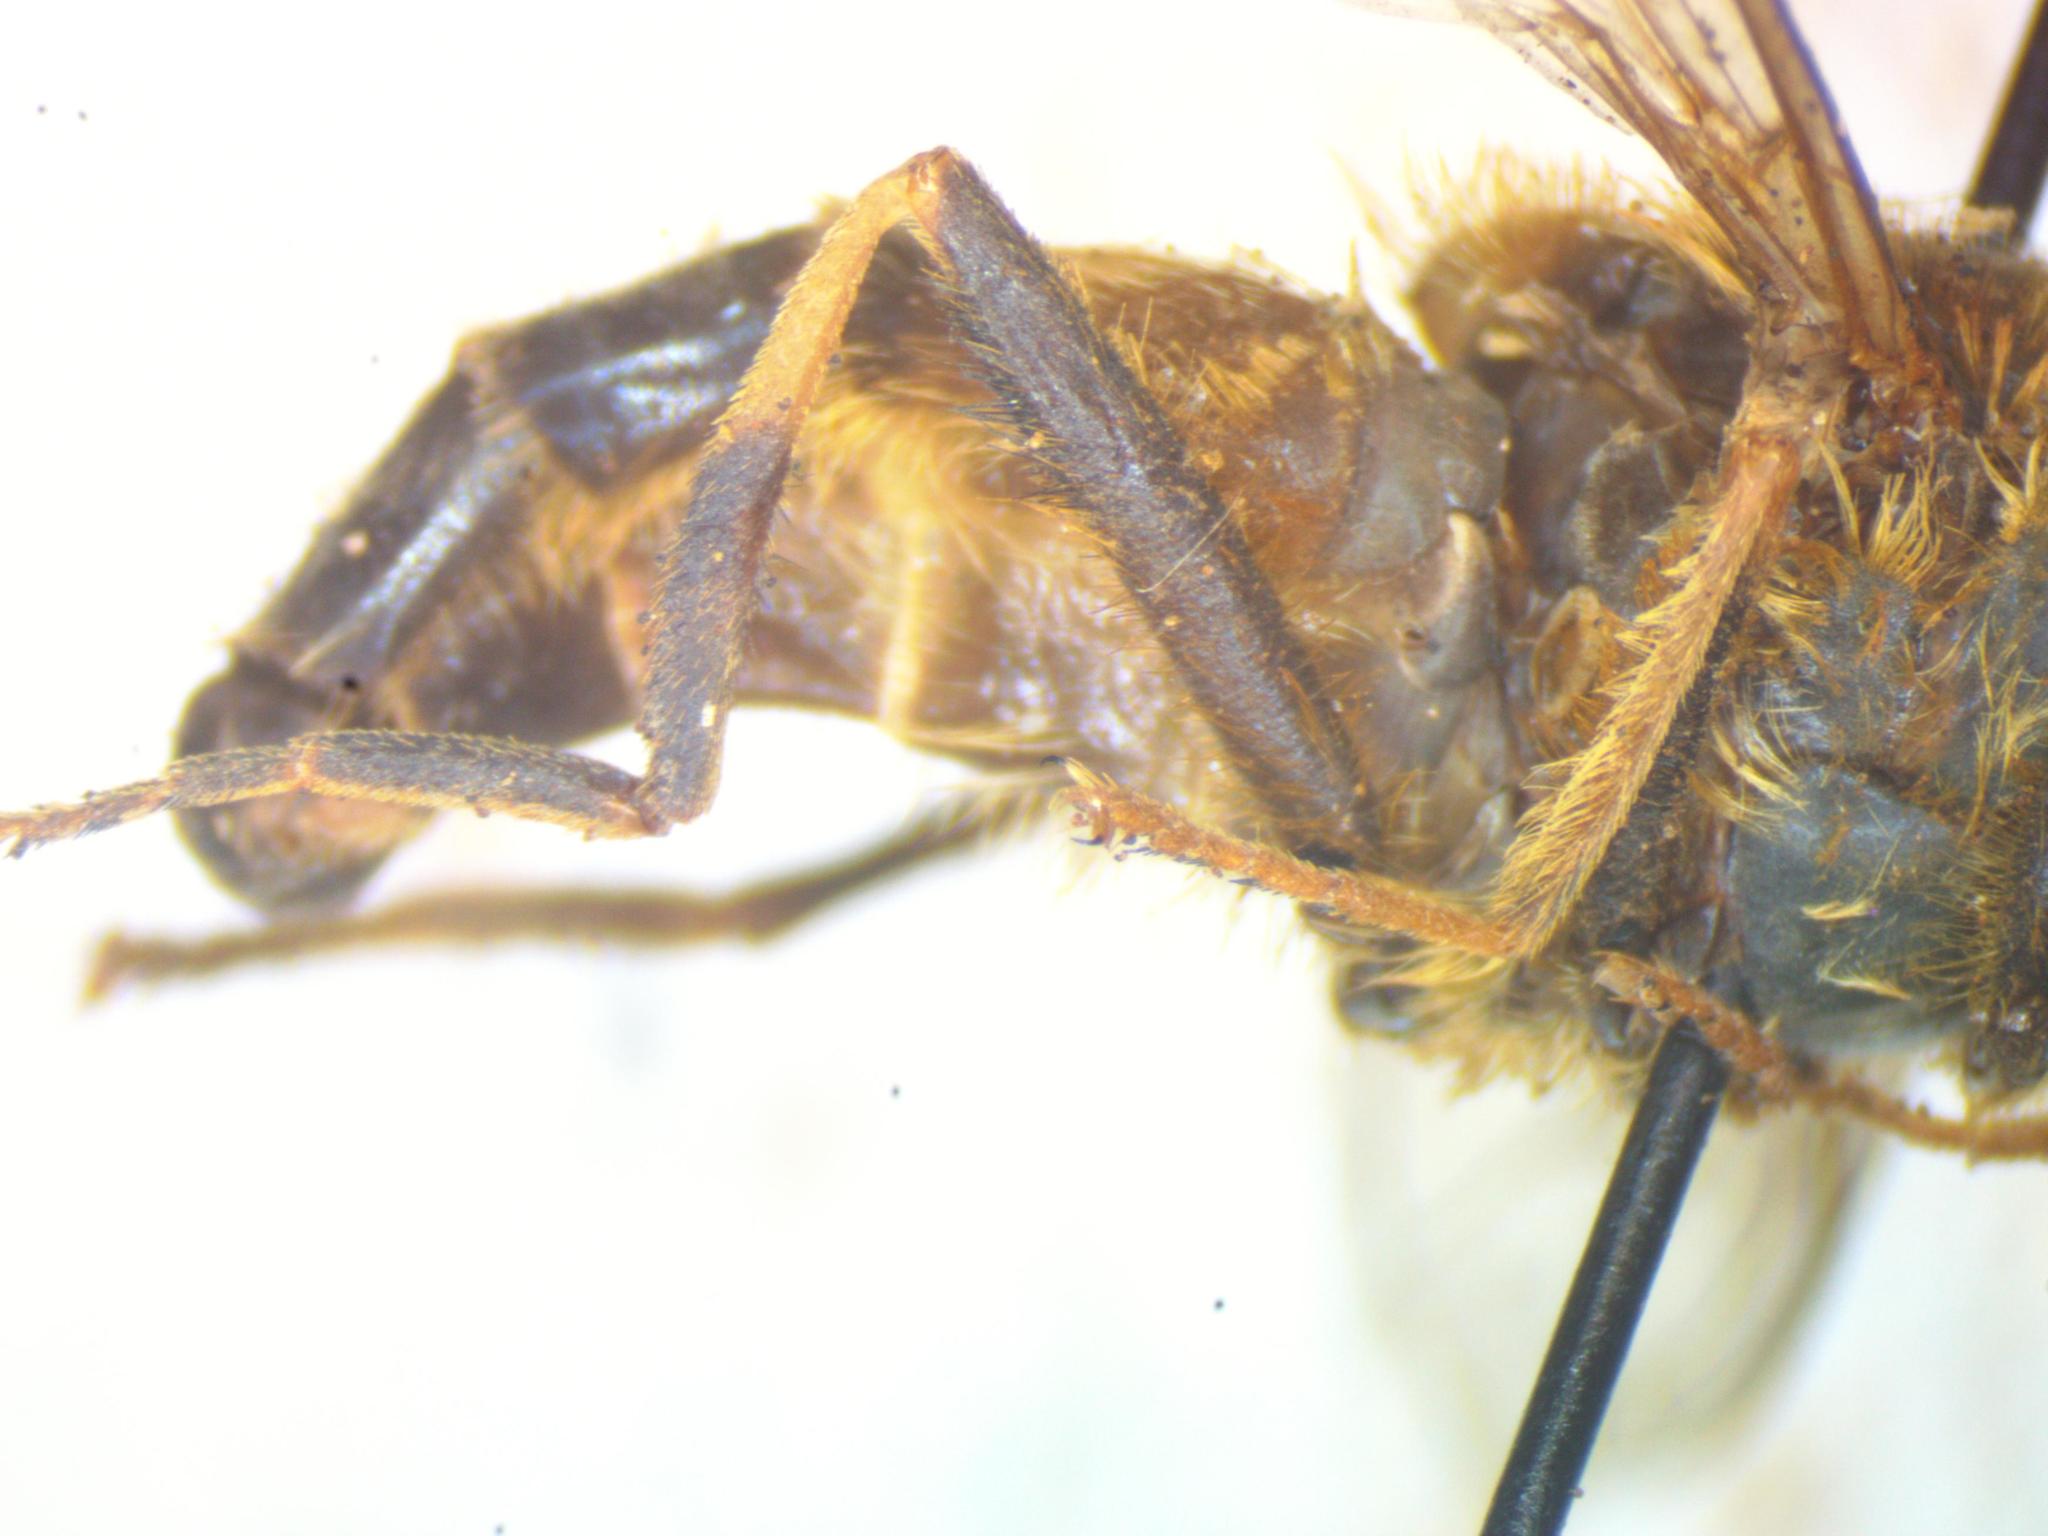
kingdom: Animalia
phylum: Arthropoda
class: Insecta
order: Diptera
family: Syrphidae
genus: Eristalis
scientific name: Eristalis pertinax
